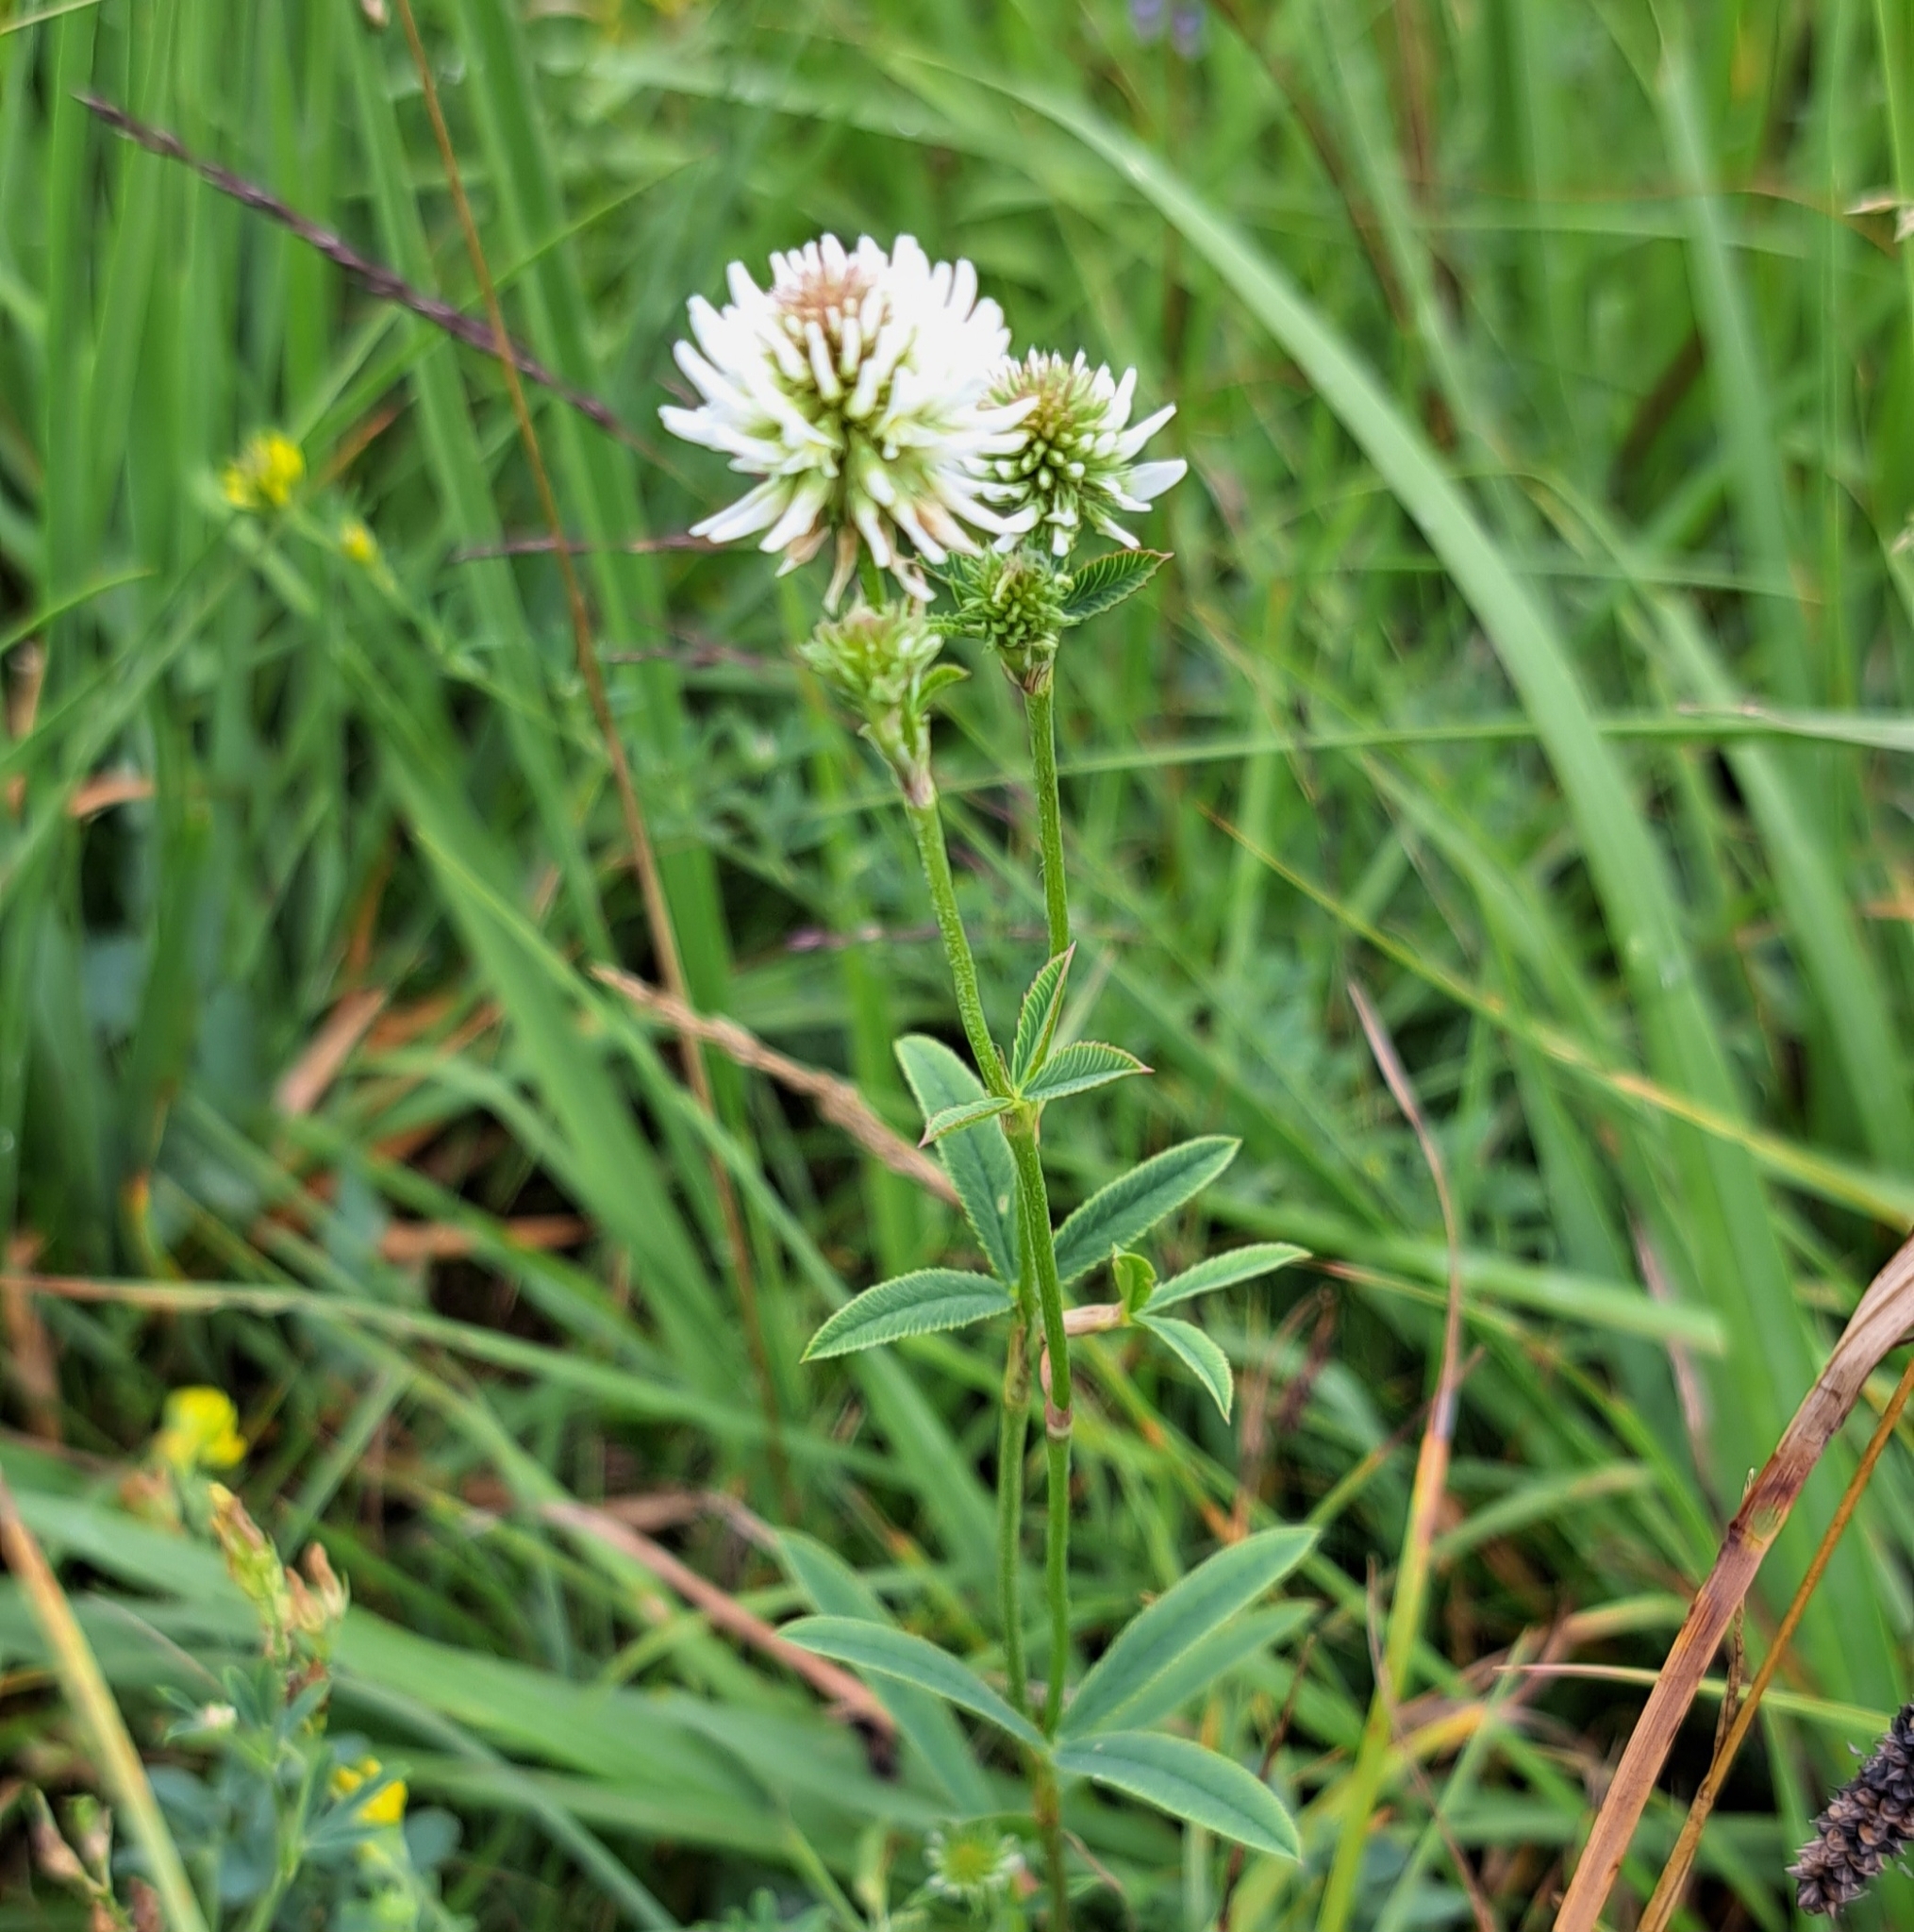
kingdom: Plantae
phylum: Tracheophyta
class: Magnoliopsida
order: Fabales
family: Fabaceae
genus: Trifolium
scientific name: Trifolium montanum
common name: Mountain clover
